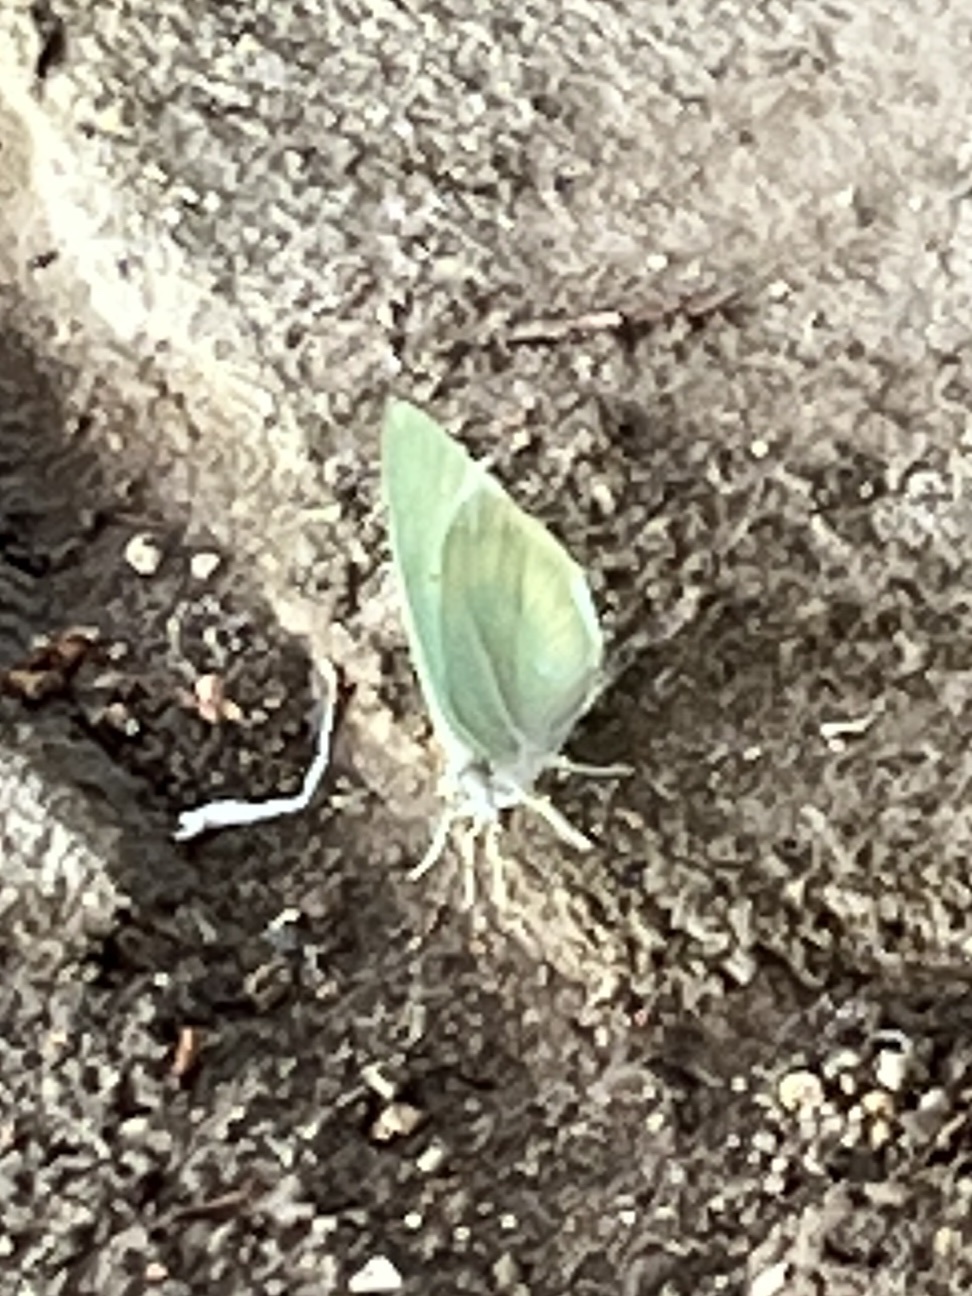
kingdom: Animalia
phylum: Arthropoda
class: Insecta
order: Lepidoptera
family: Pieridae
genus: Catopsilia
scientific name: Catopsilia florella
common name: African migrant
